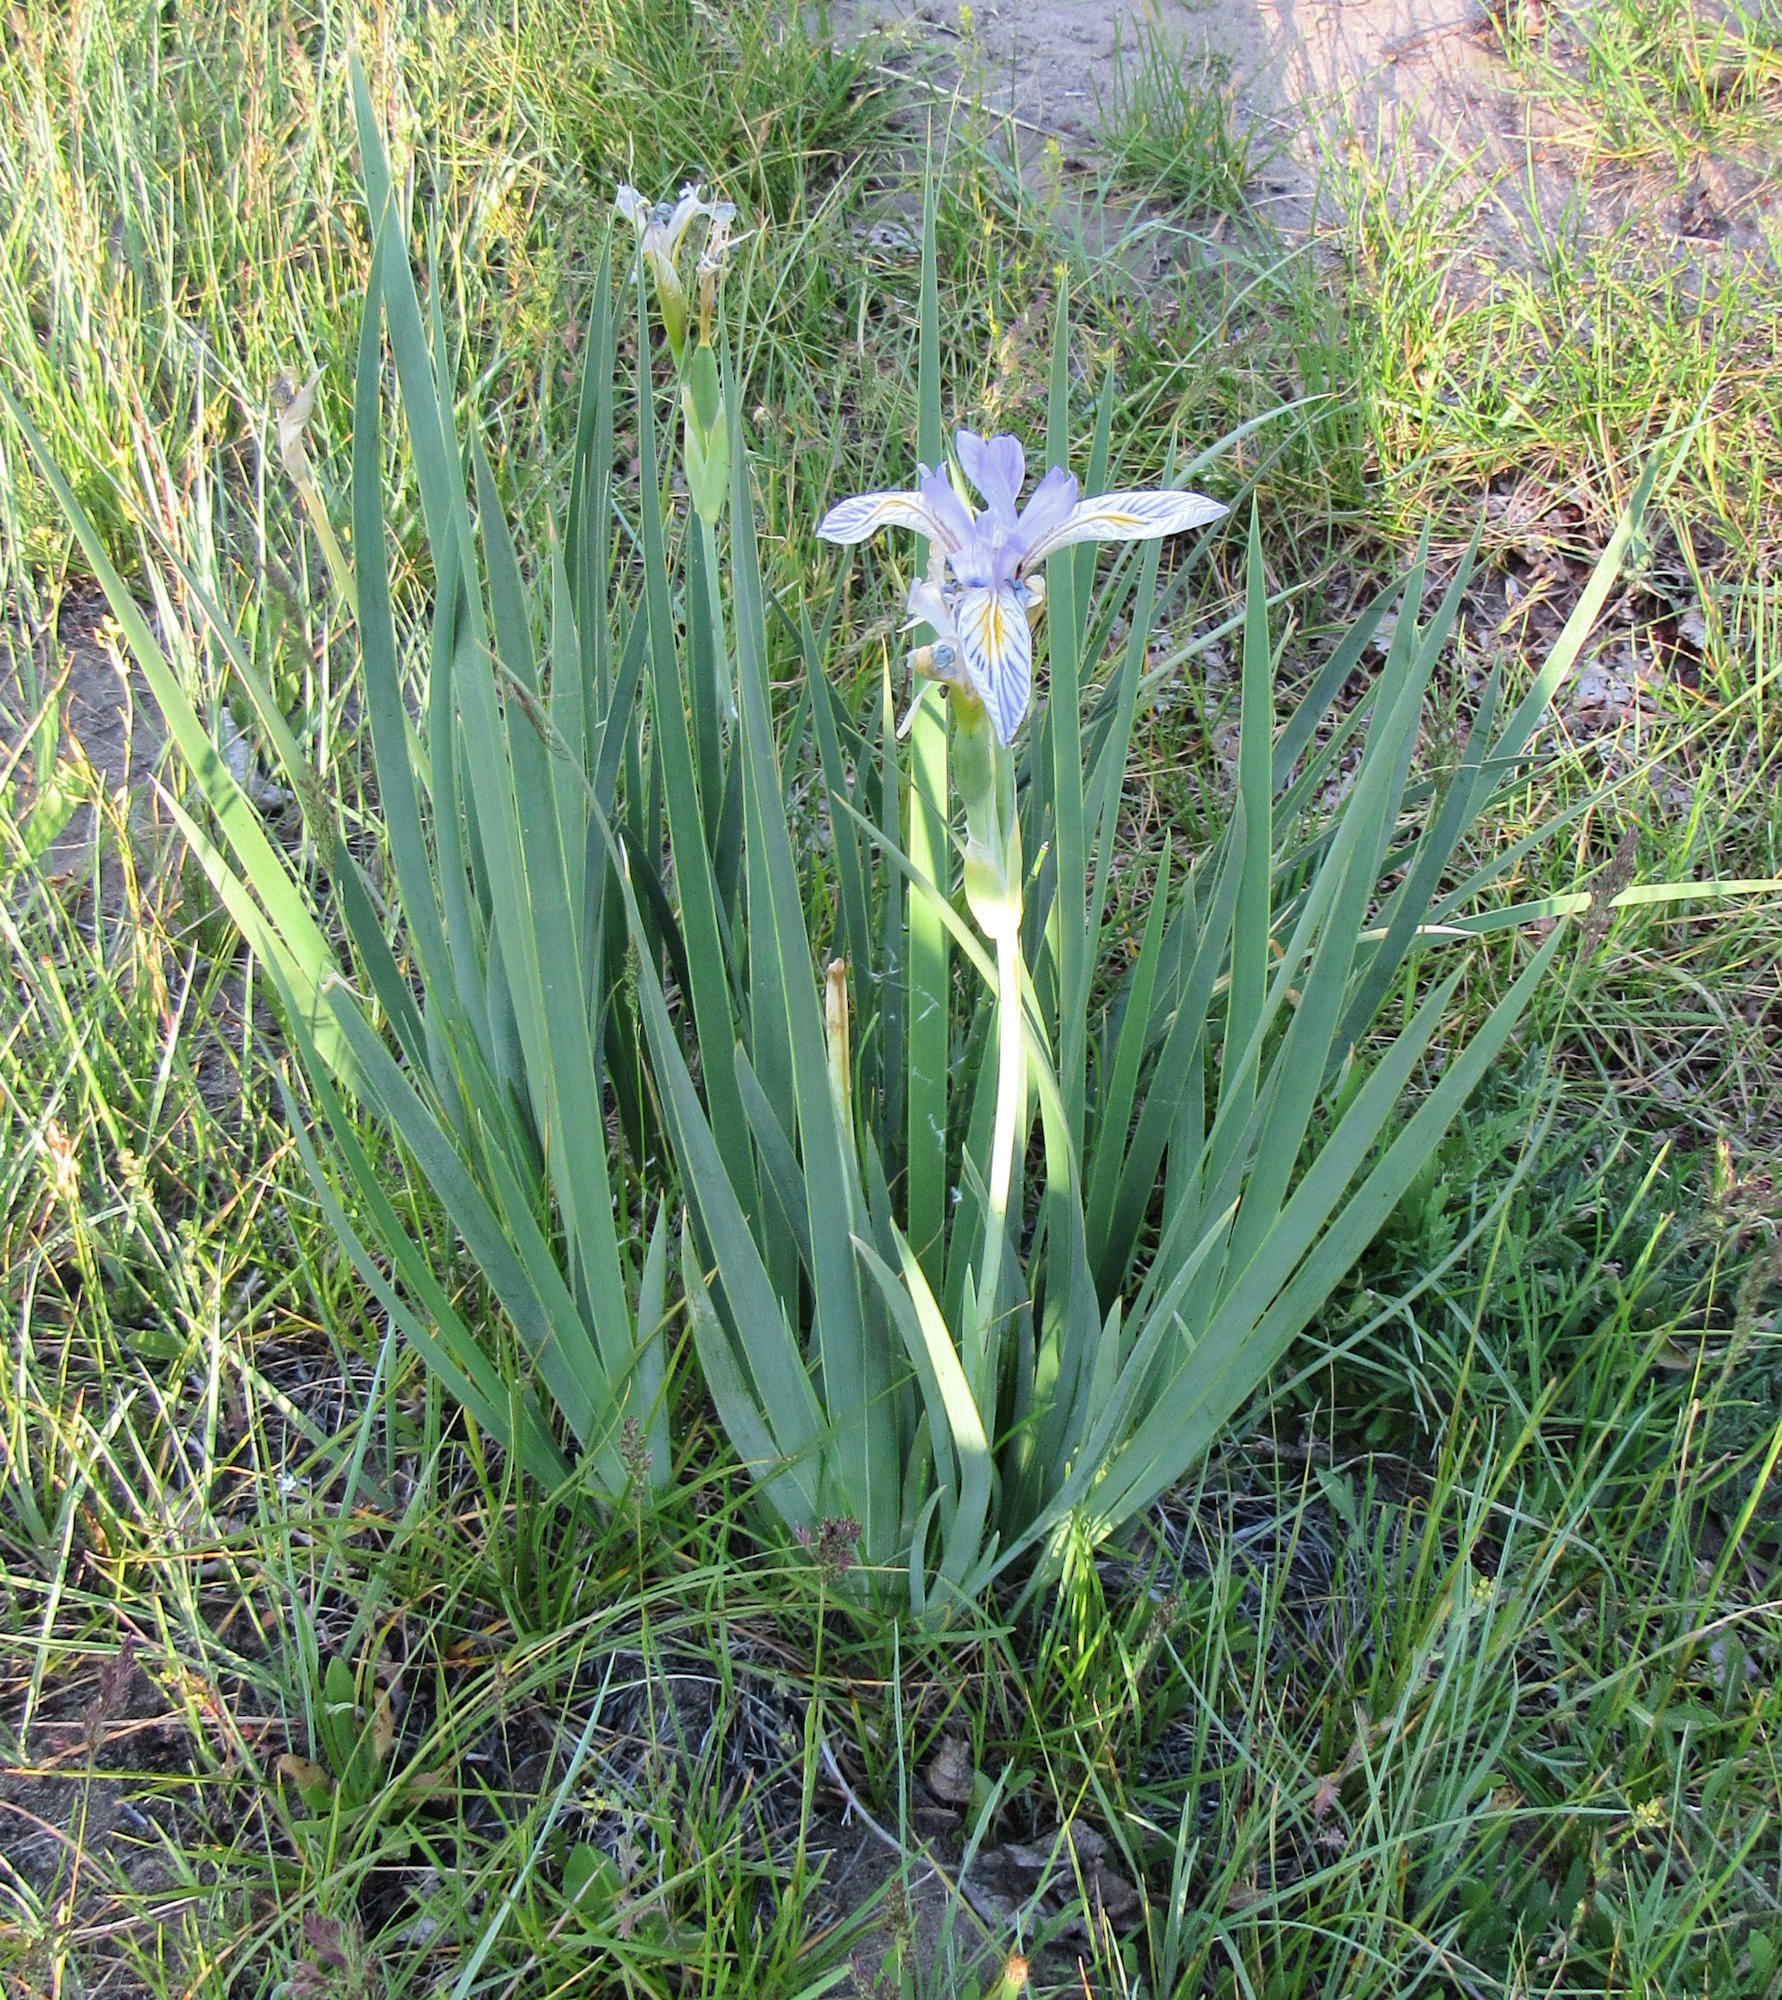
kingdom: Plantae
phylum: Tracheophyta
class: Liliopsida
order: Asparagales
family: Iridaceae
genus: Iris
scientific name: Iris missouriensis
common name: Rocky mountain iris
